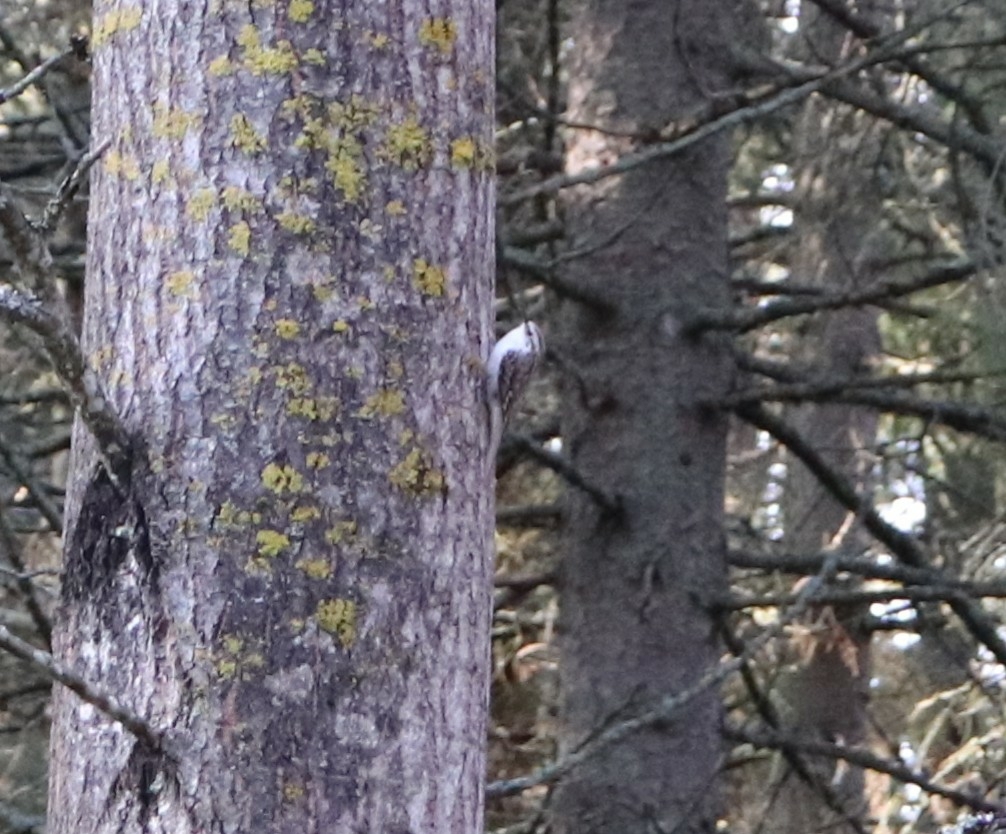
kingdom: Animalia
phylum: Chordata
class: Aves
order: Passeriformes
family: Certhiidae
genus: Certhia
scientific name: Certhia familiaris
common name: Eurasian treecreeper
